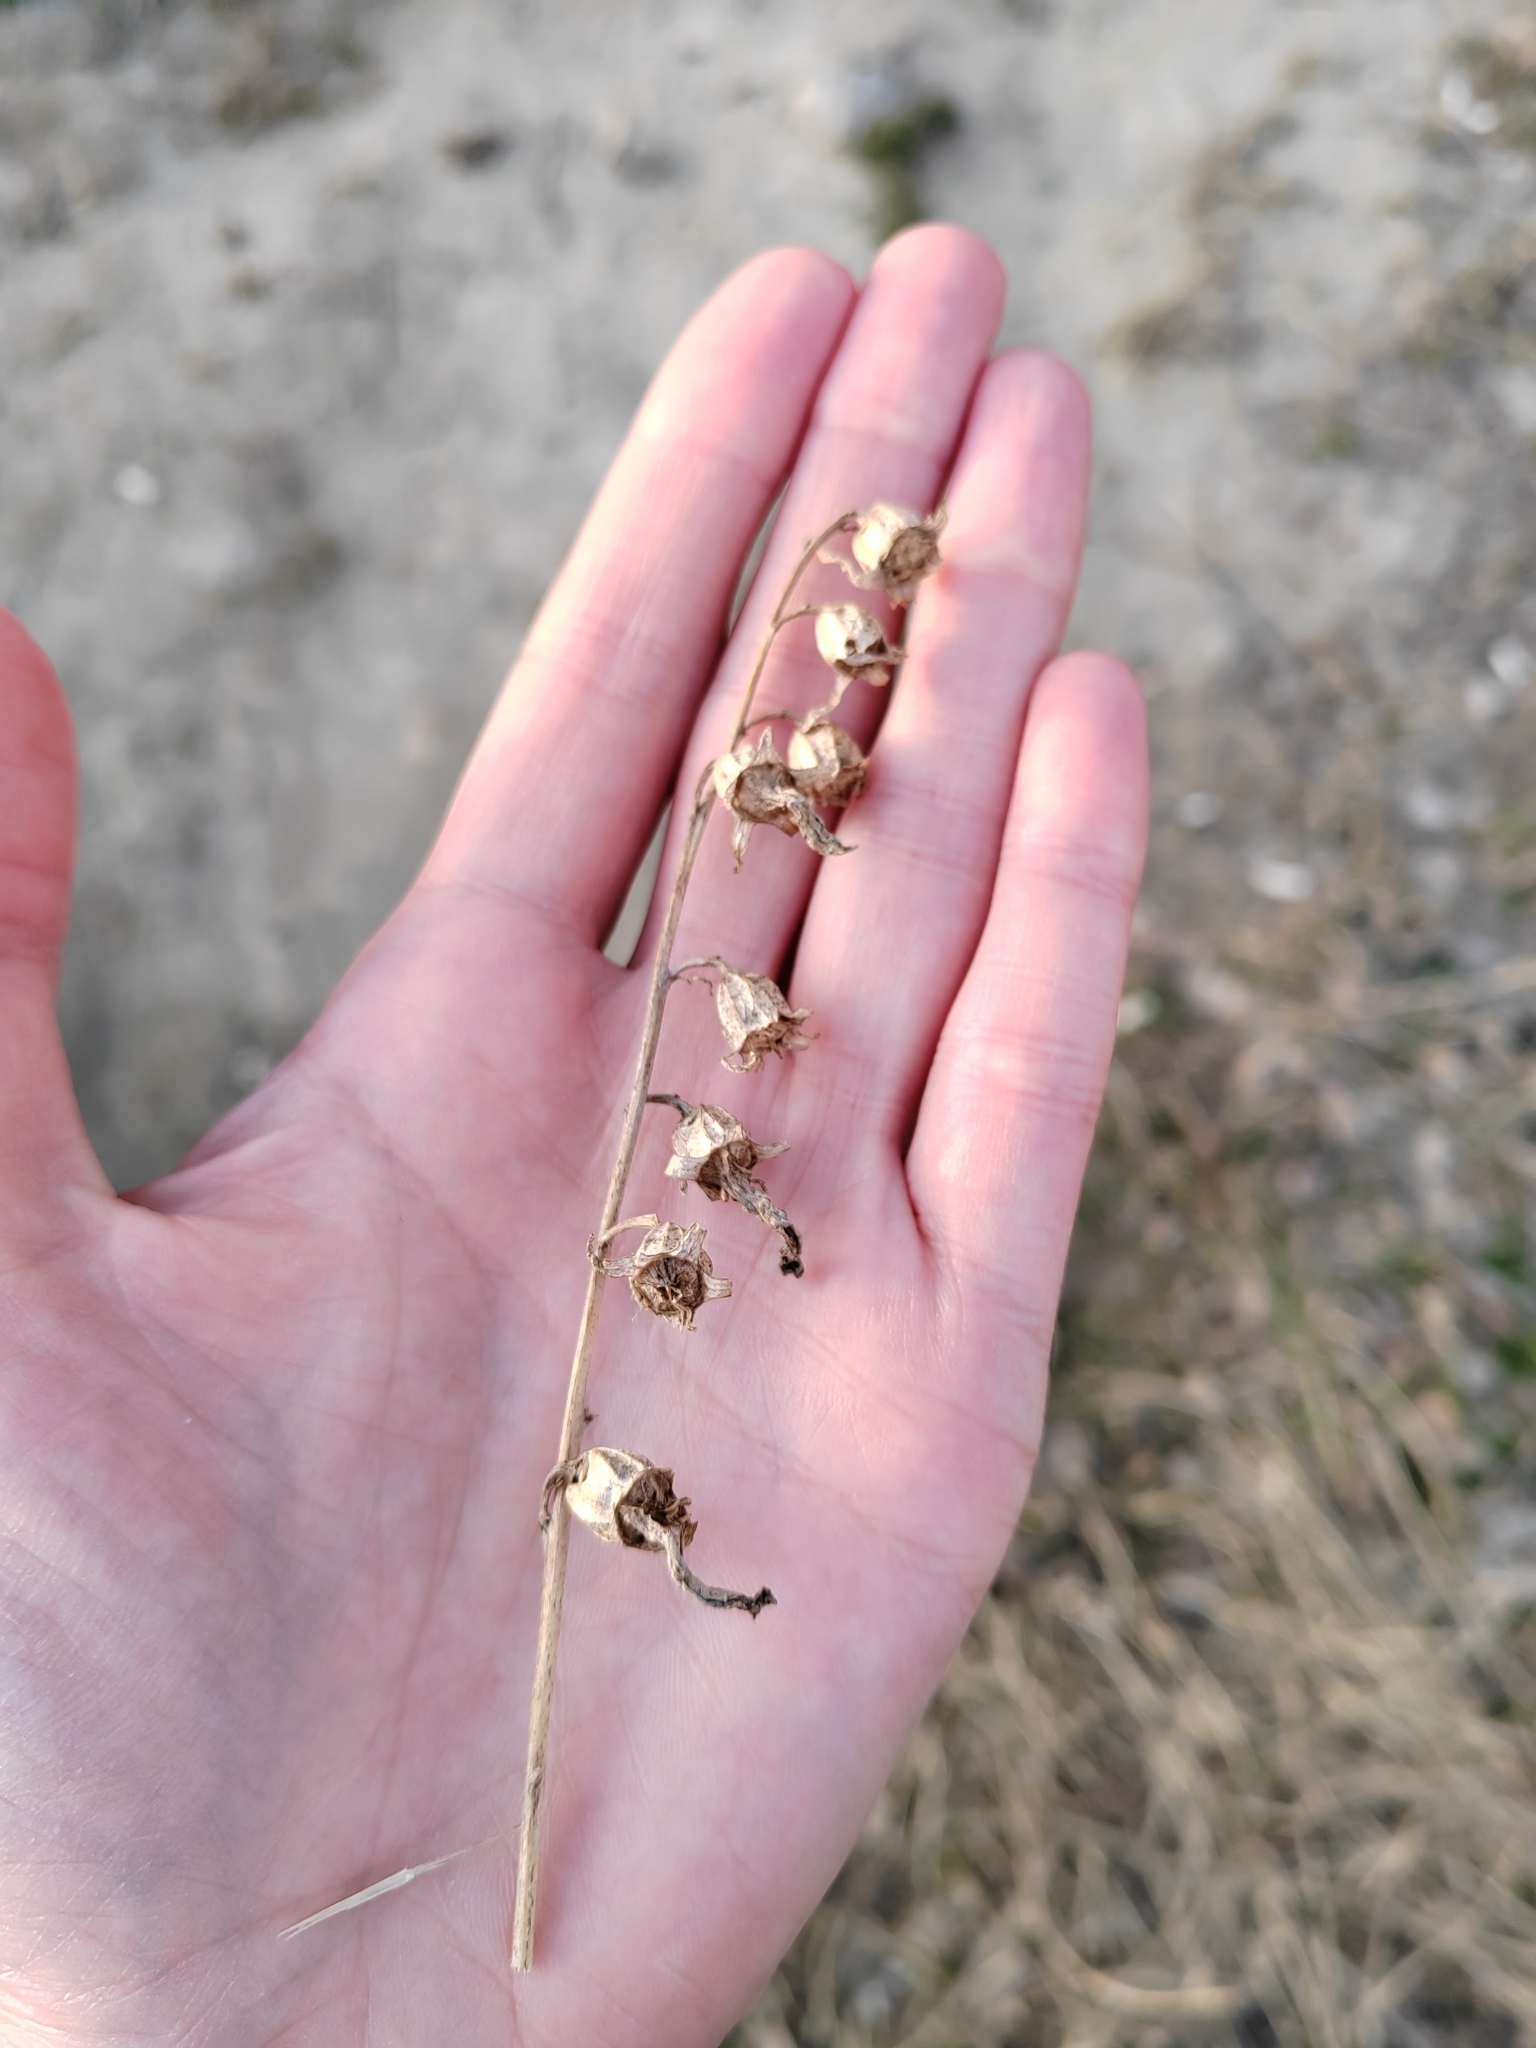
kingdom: Plantae
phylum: Tracheophyta
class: Magnoliopsida
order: Asterales
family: Campanulaceae
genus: Campanula
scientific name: Campanula rapunculoides
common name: Creeping bellflower
